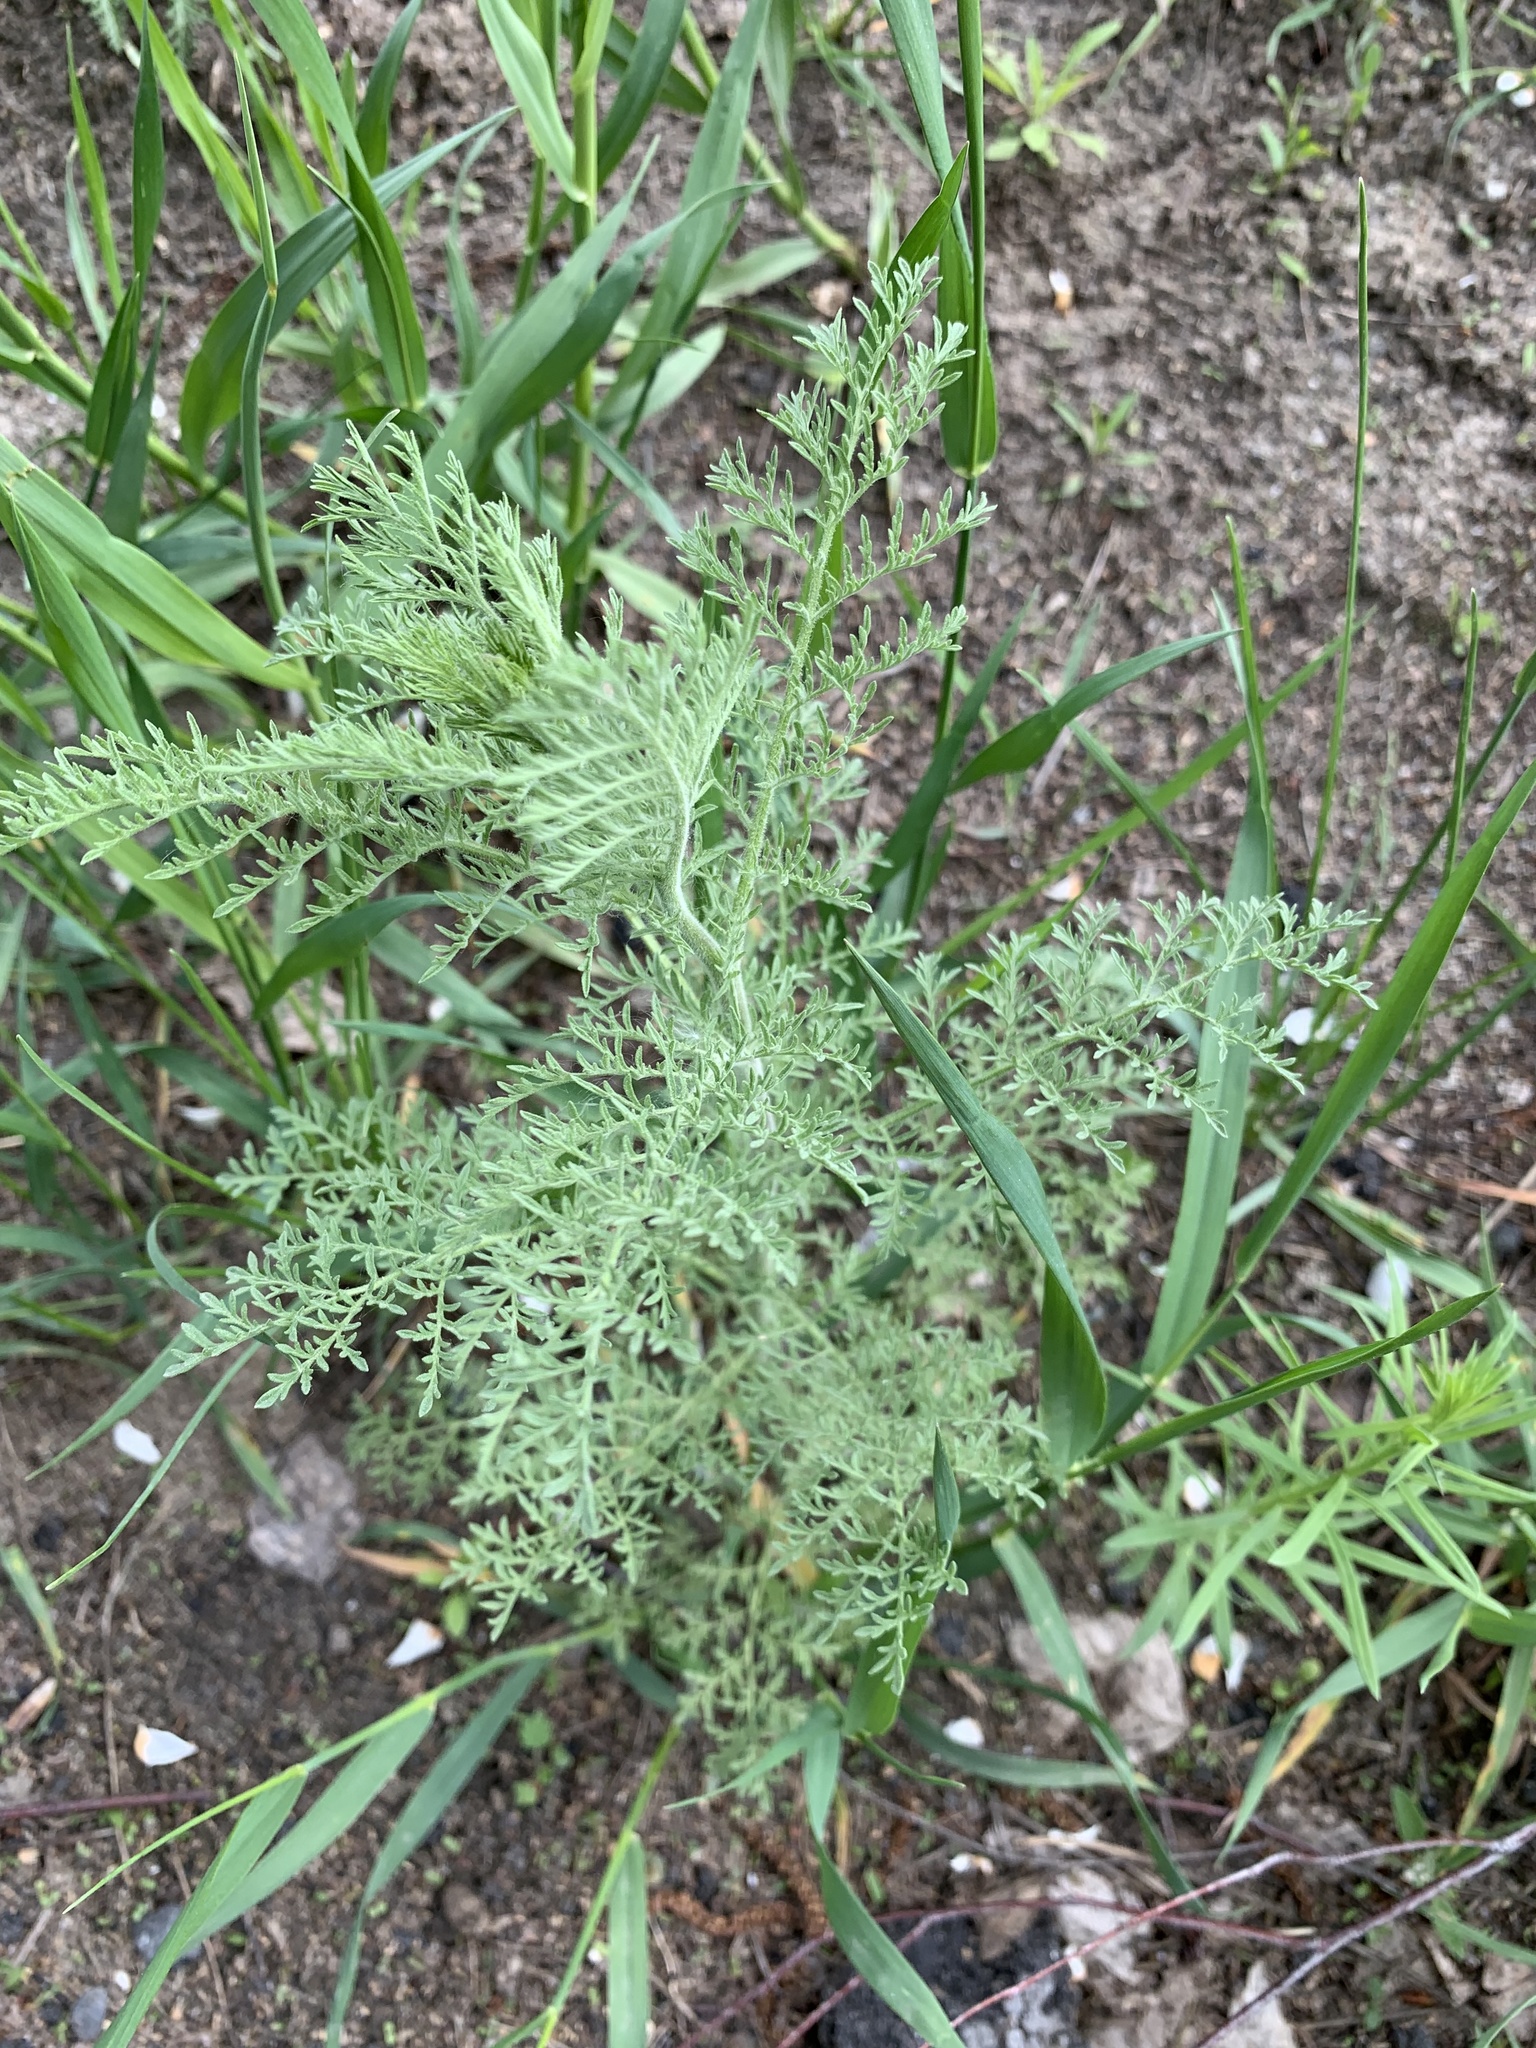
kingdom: Plantae
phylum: Tracheophyta
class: Magnoliopsida
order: Brassicales
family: Brassicaceae
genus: Descurainia
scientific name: Descurainia sophia
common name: Flixweed
